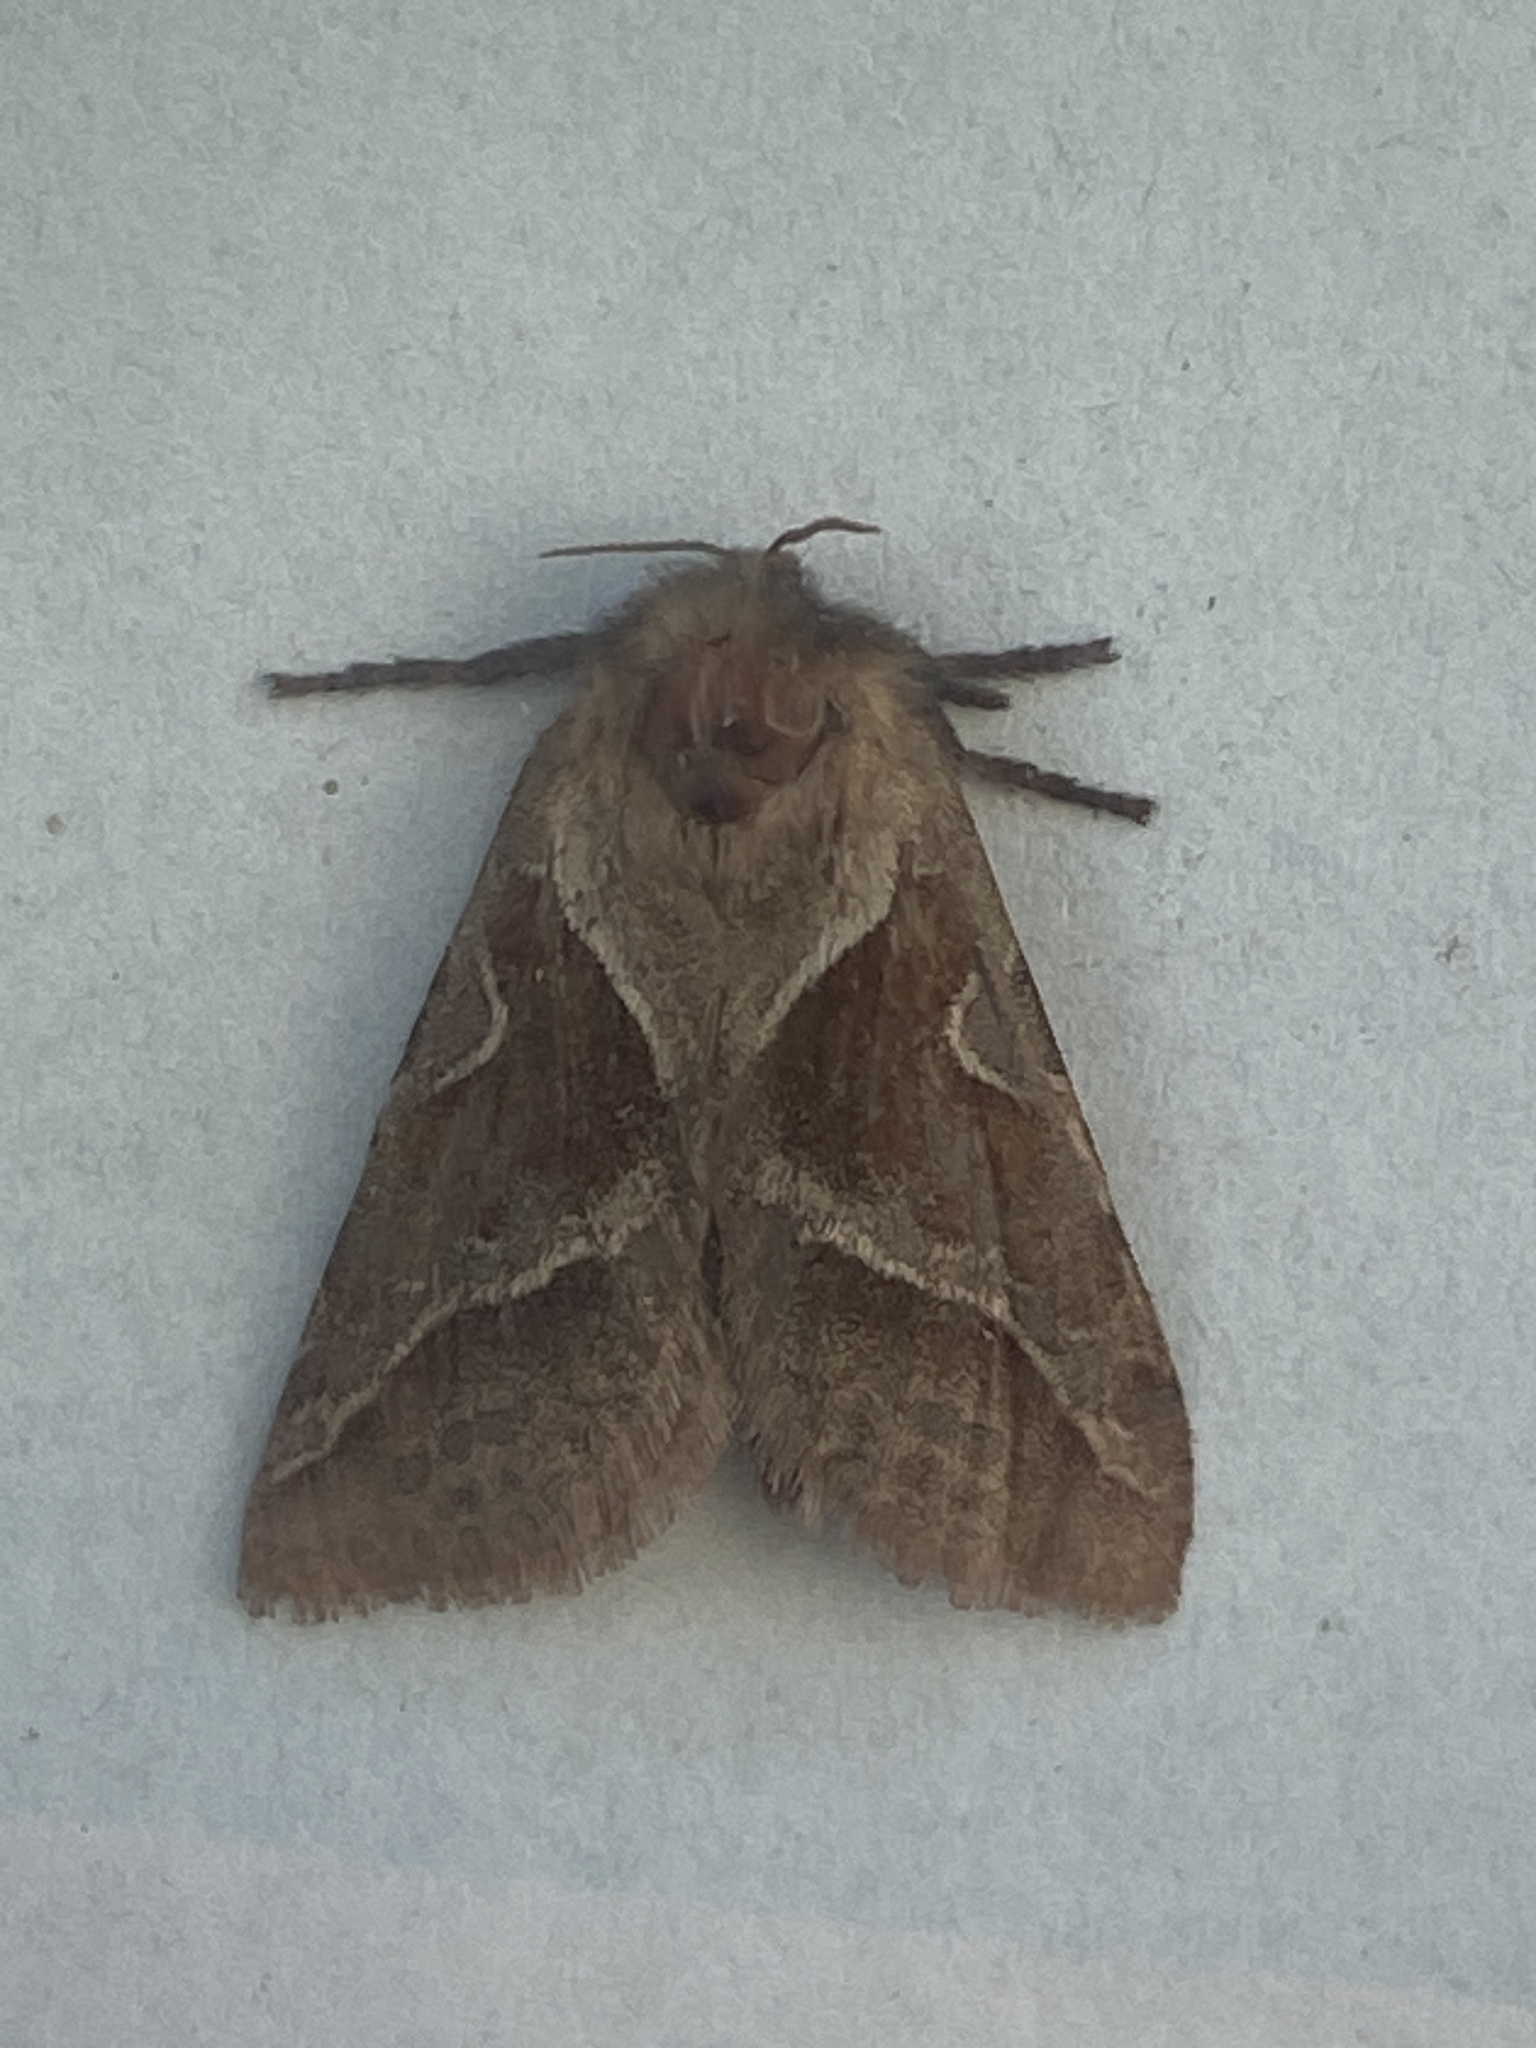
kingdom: Animalia
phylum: Arthropoda
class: Insecta
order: Lepidoptera
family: Hepialidae
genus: Triodia
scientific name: Triodia sylvina
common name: Orange swift
